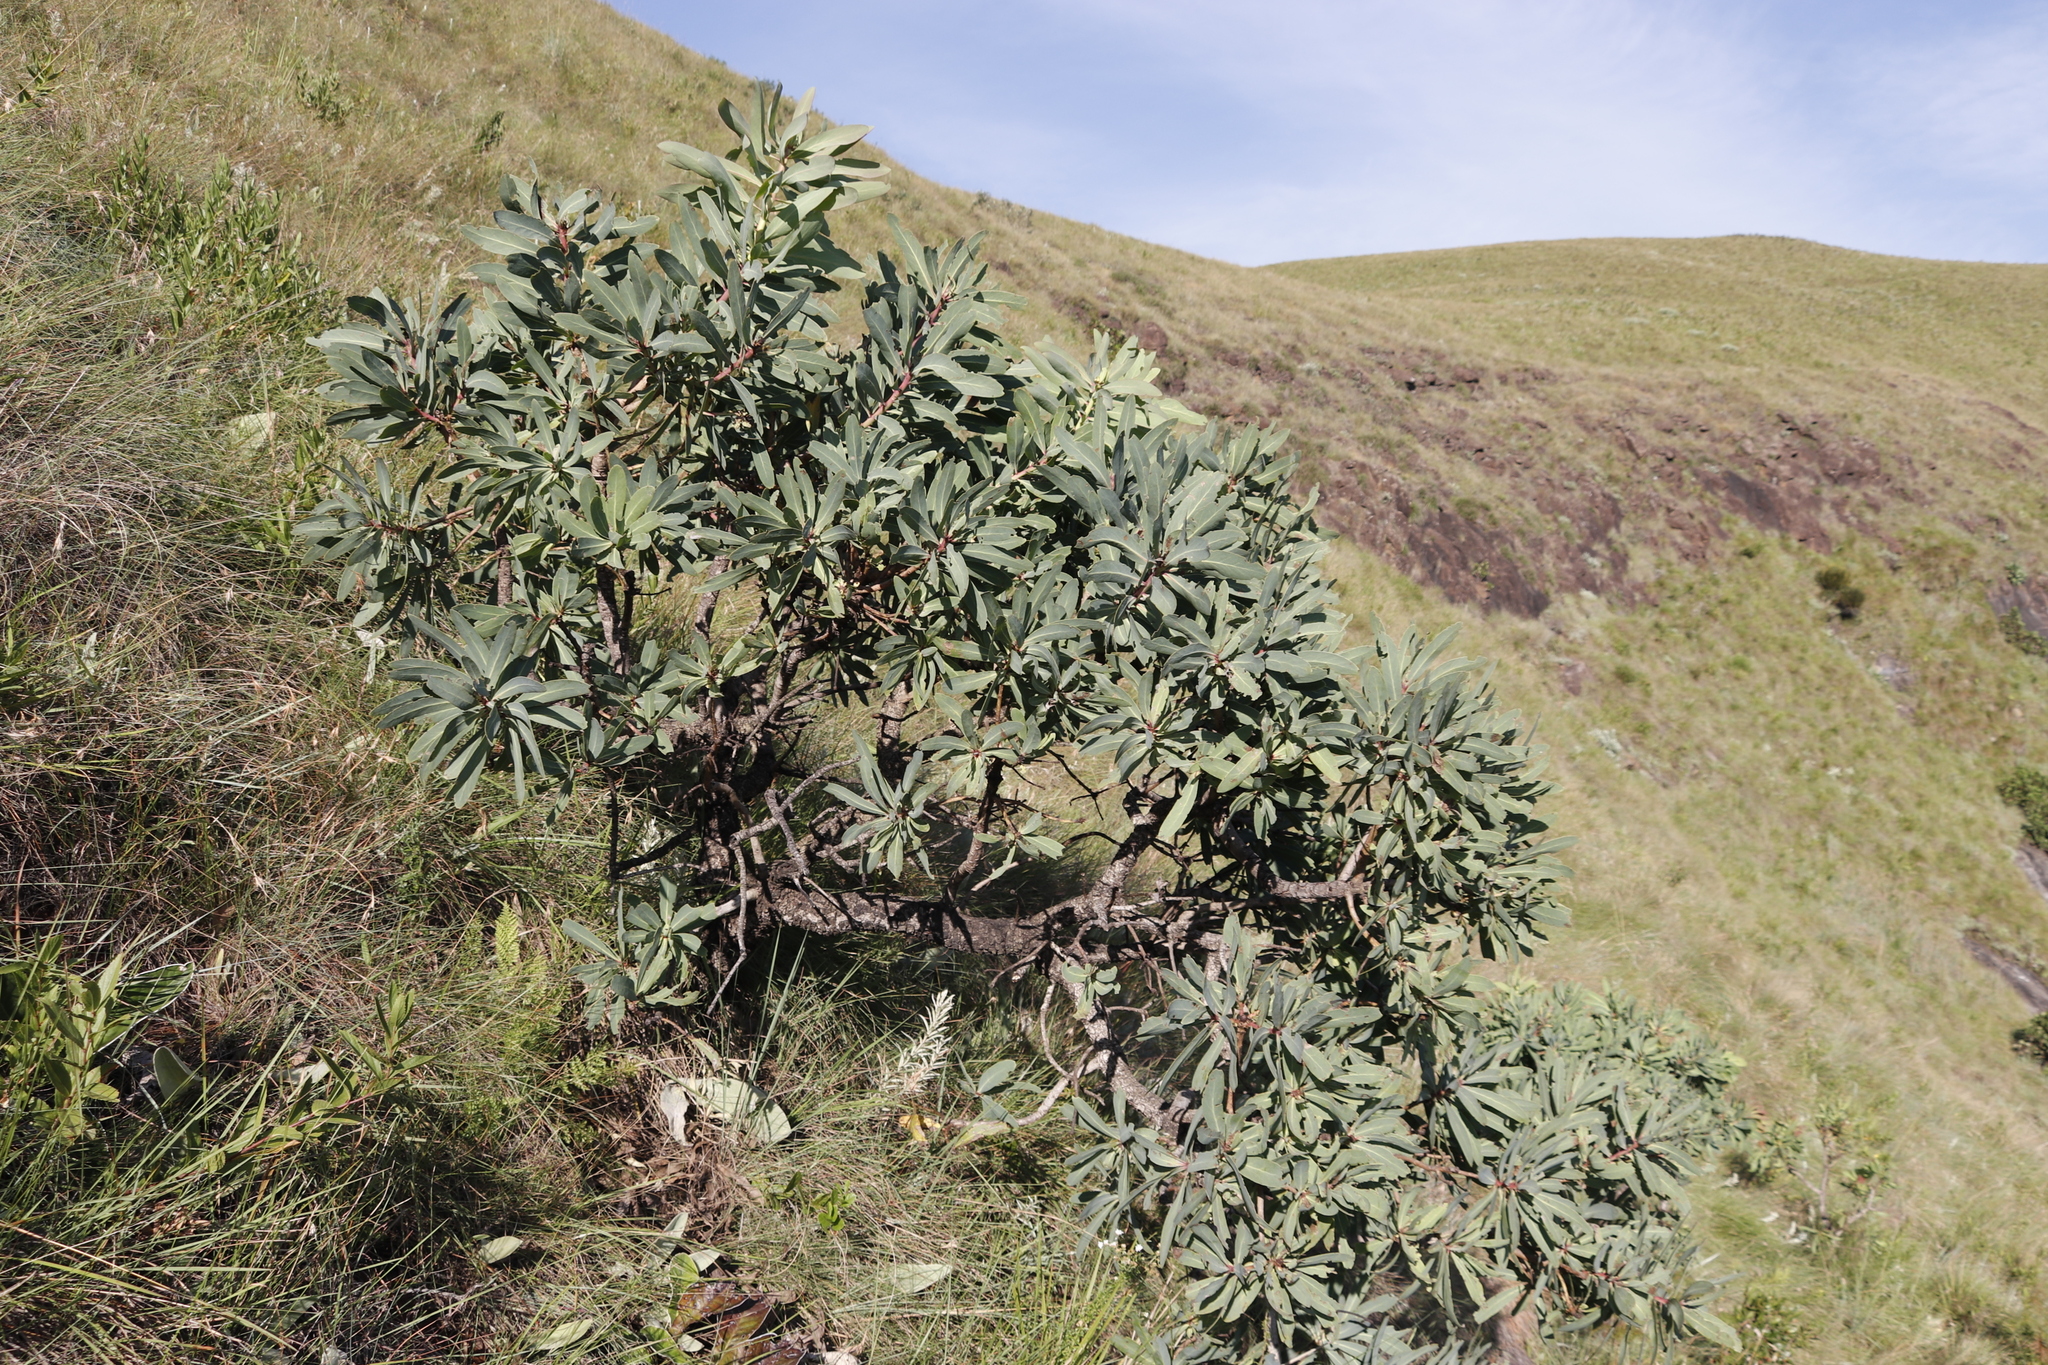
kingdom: Plantae
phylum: Tracheophyta
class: Magnoliopsida
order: Proteales
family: Proteaceae
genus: Protea
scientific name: Protea caffra
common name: Common sugarbush
